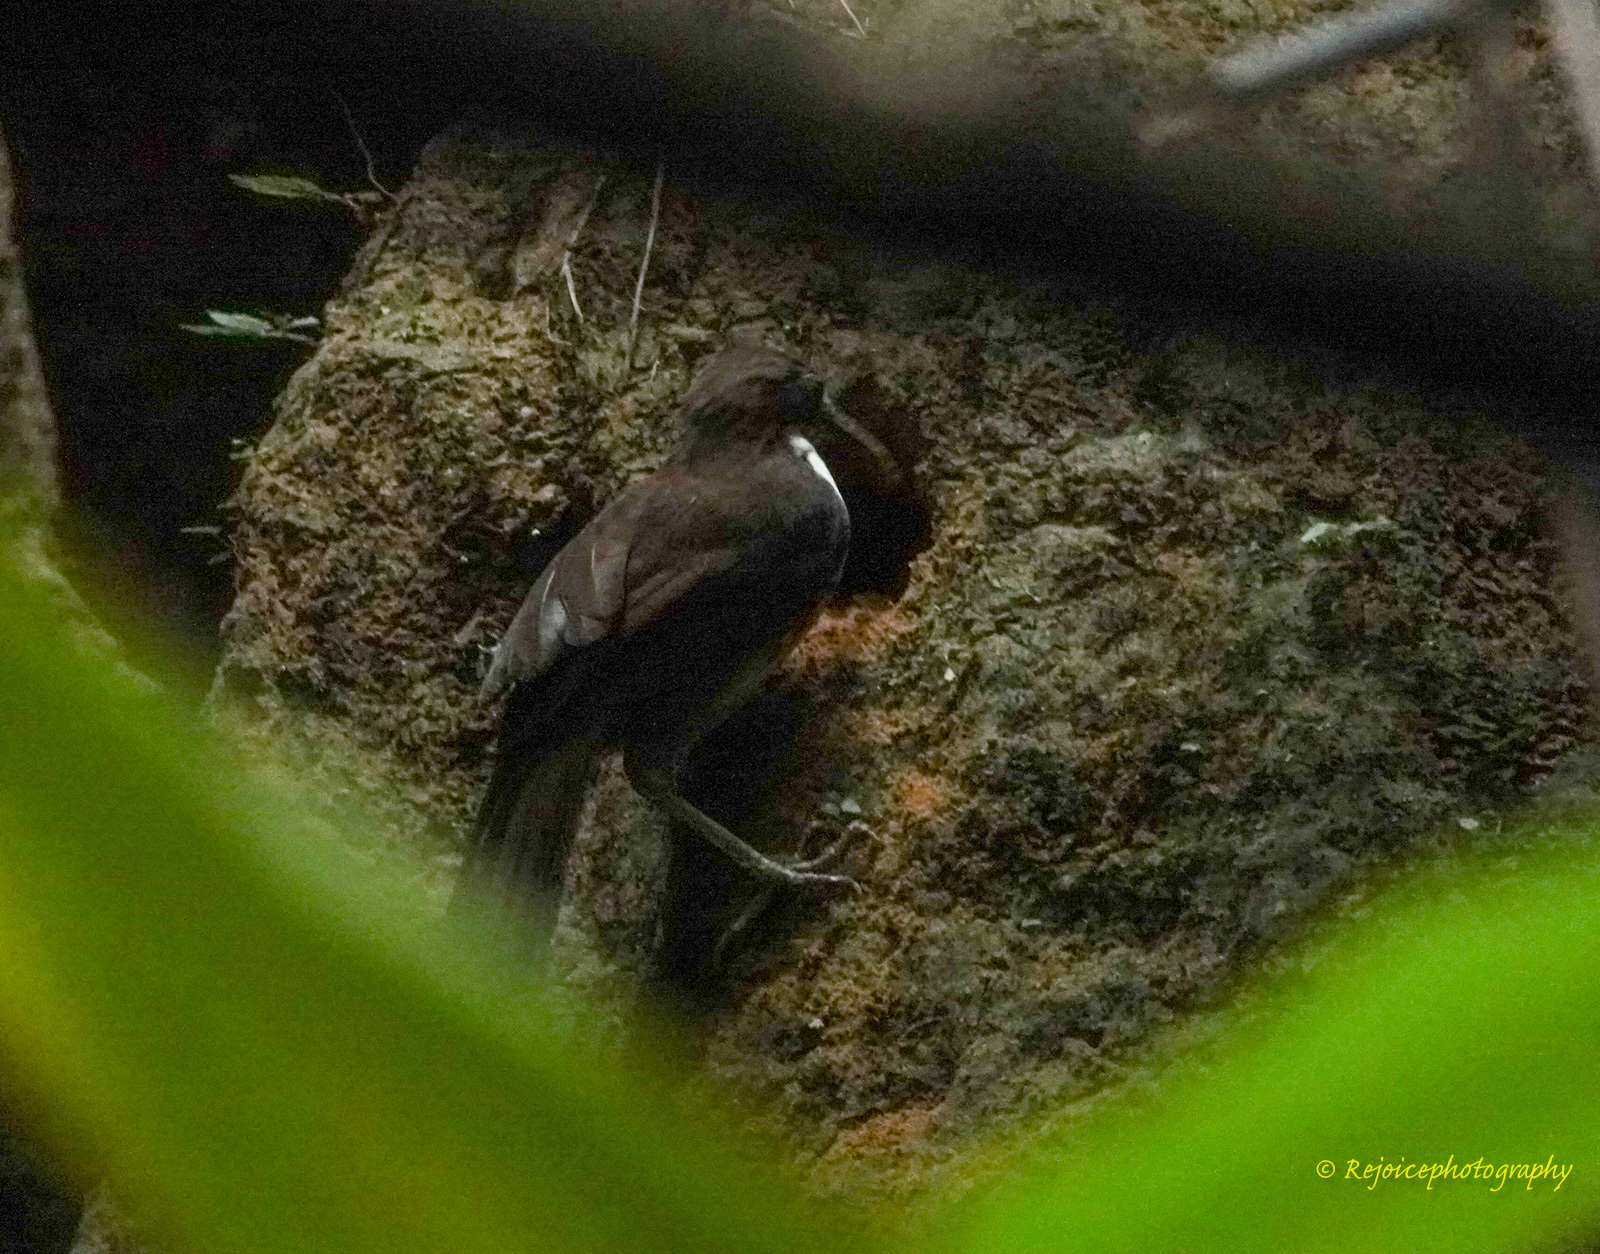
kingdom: Animalia
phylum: Chordata
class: Aves
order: Passeriformes
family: Timaliidae
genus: Pomatorhinus
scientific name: Pomatorhinus hypoleucos
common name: Large scimitar babbler
